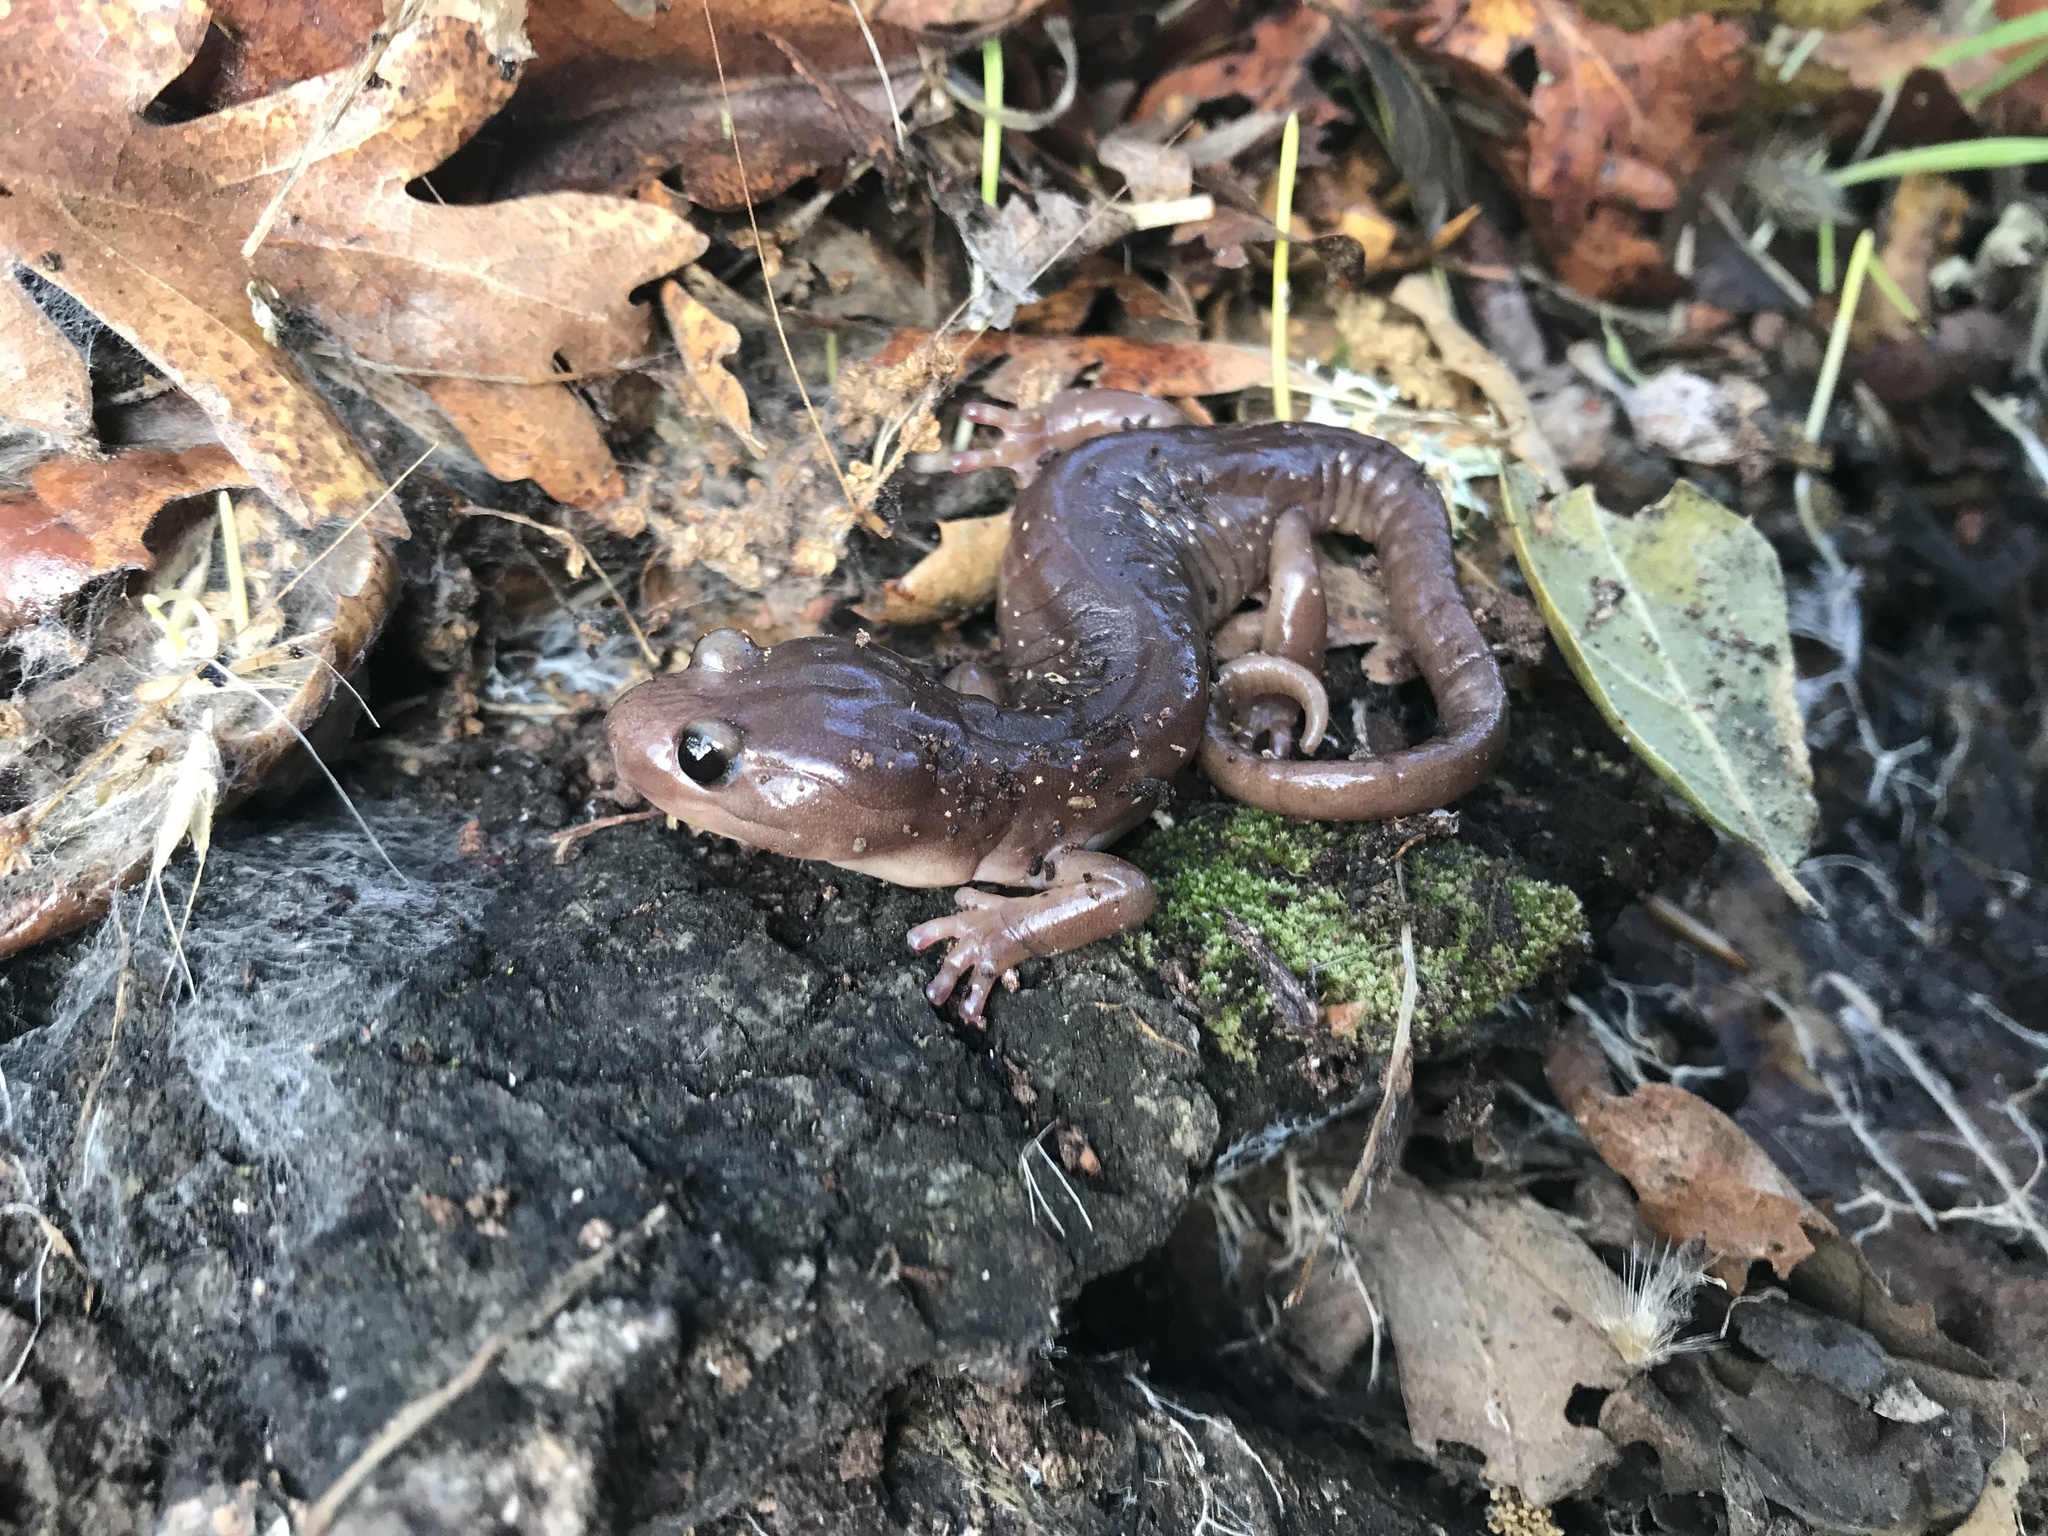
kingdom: Animalia
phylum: Chordata
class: Amphibia
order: Caudata
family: Plethodontidae
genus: Aneides
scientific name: Aneides lugubris
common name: Arboreal salamander
